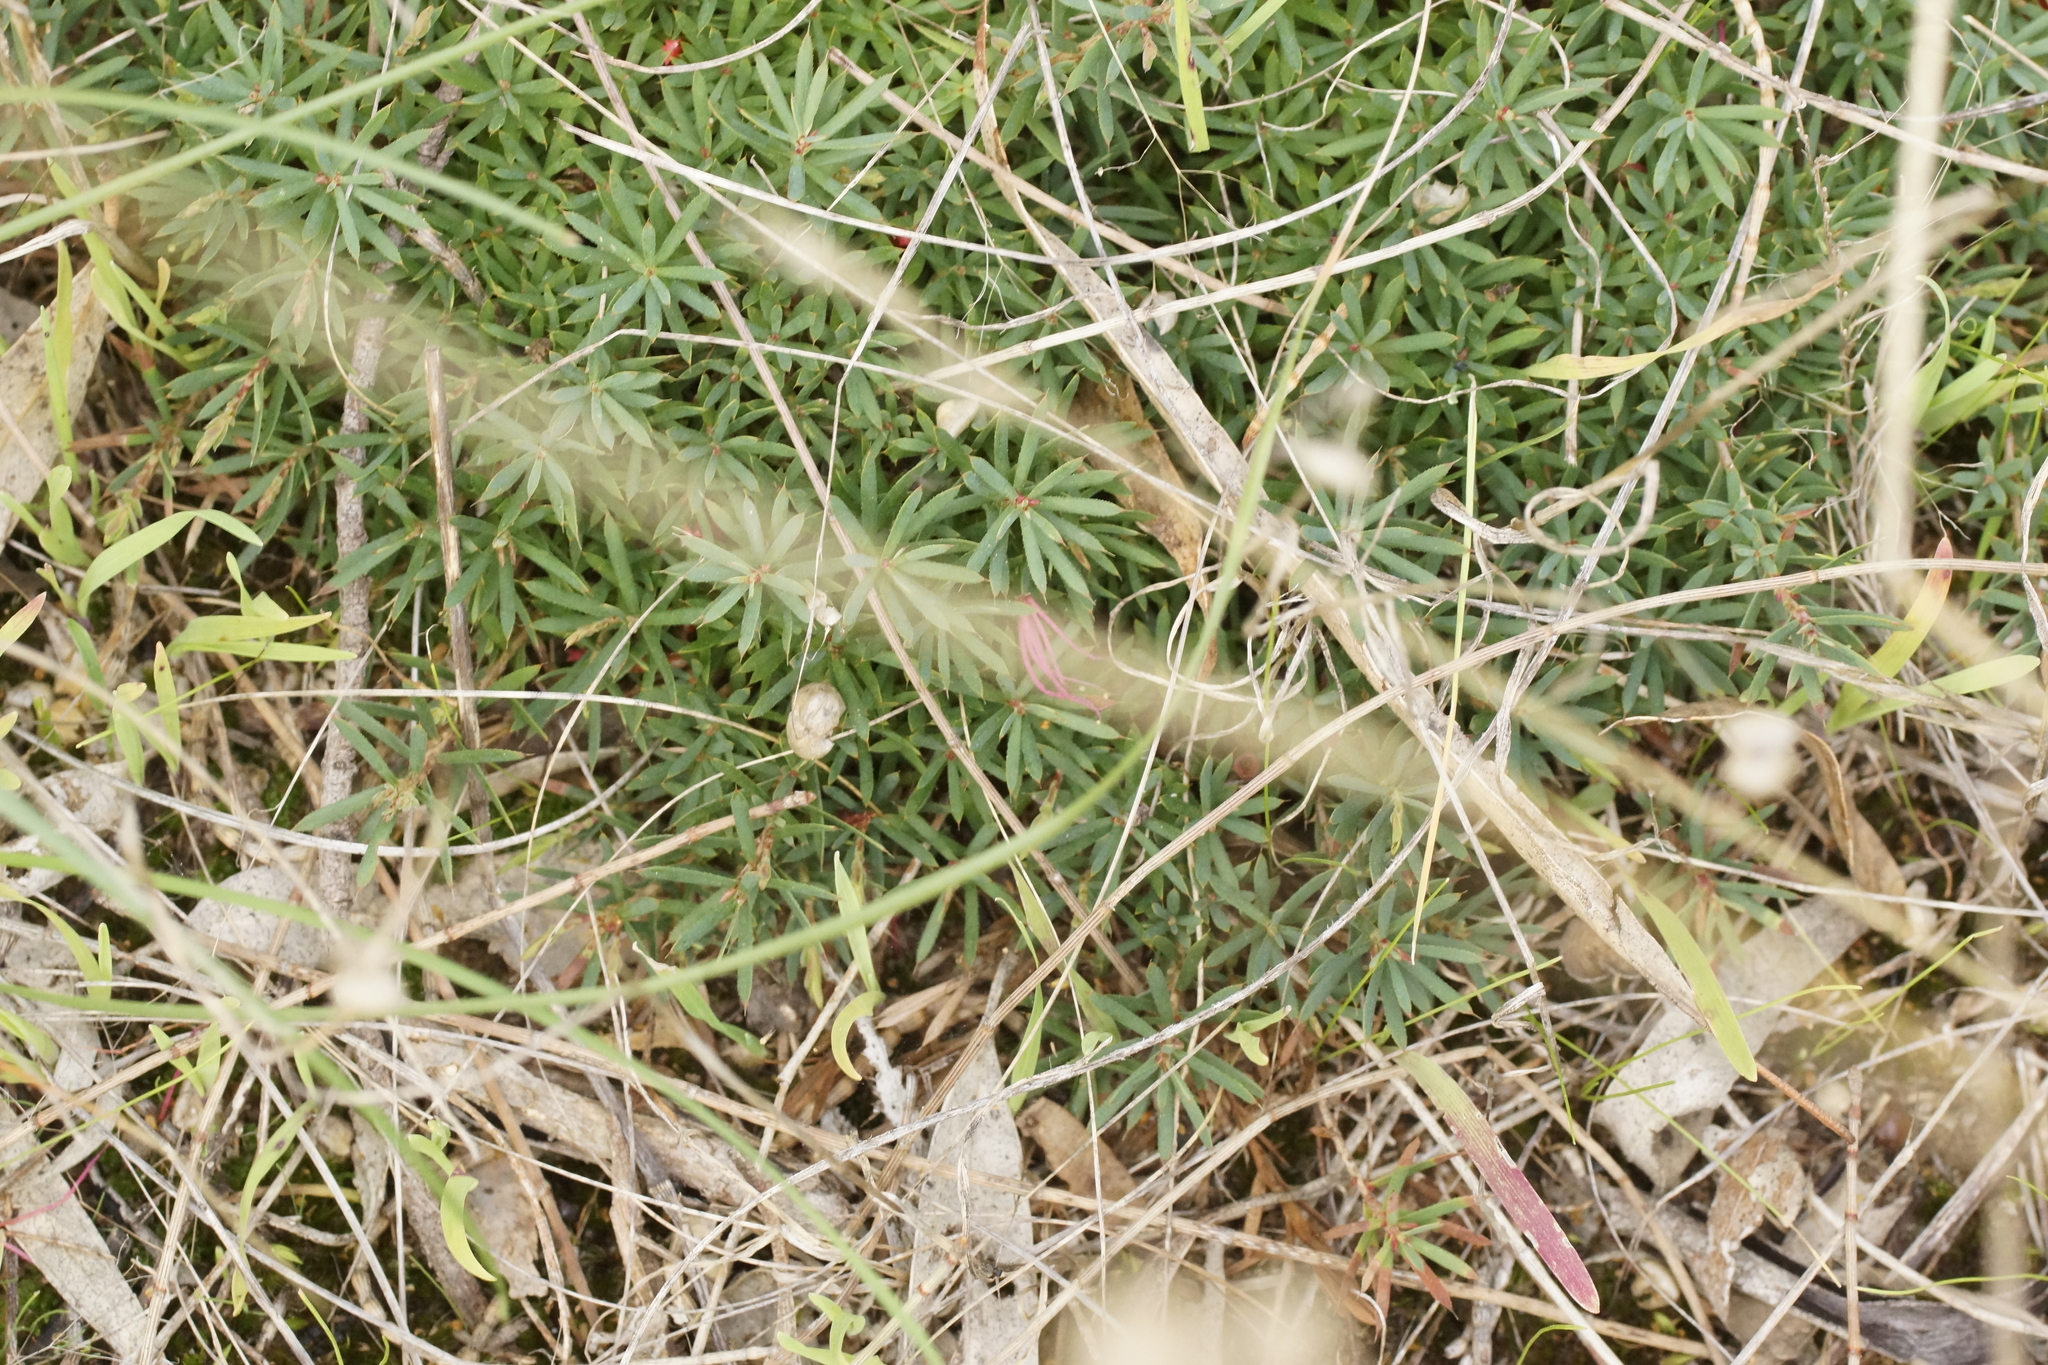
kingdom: Plantae
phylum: Tracheophyta
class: Magnoliopsida
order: Ericales
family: Ericaceae
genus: Styphelia
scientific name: Styphelia humifusa
